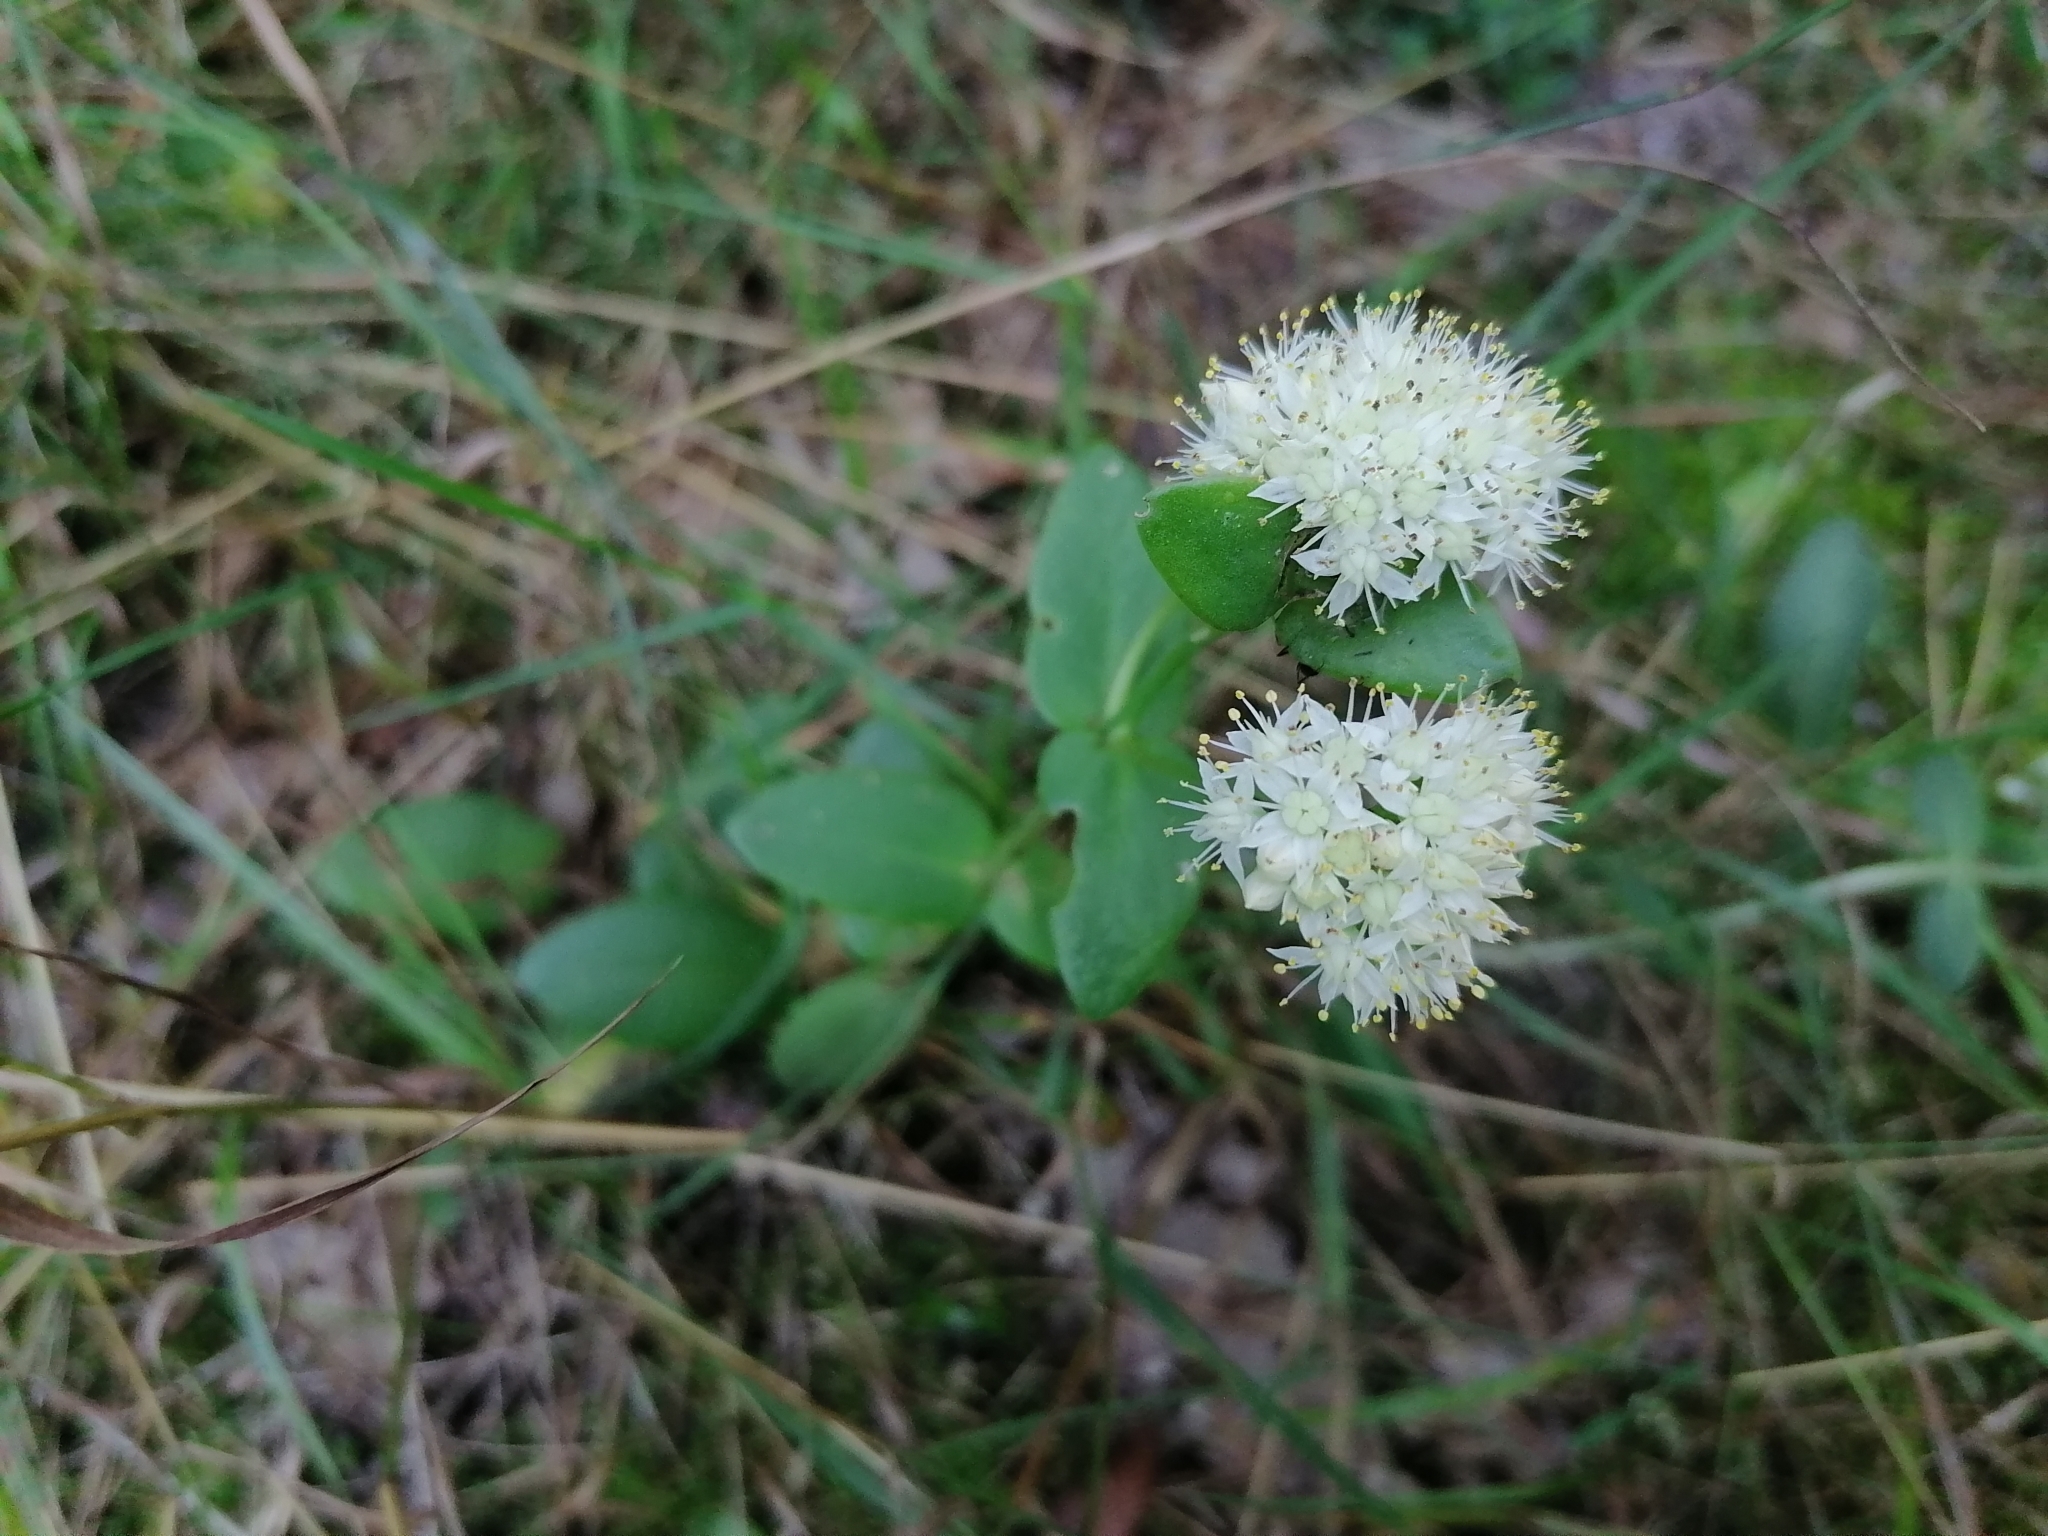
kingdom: Plantae
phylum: Tracheophyta
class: Magnoliopsida
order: Saxifragales
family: Crassulaceae
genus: Hylotelephium
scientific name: Hylotelephium maximum
